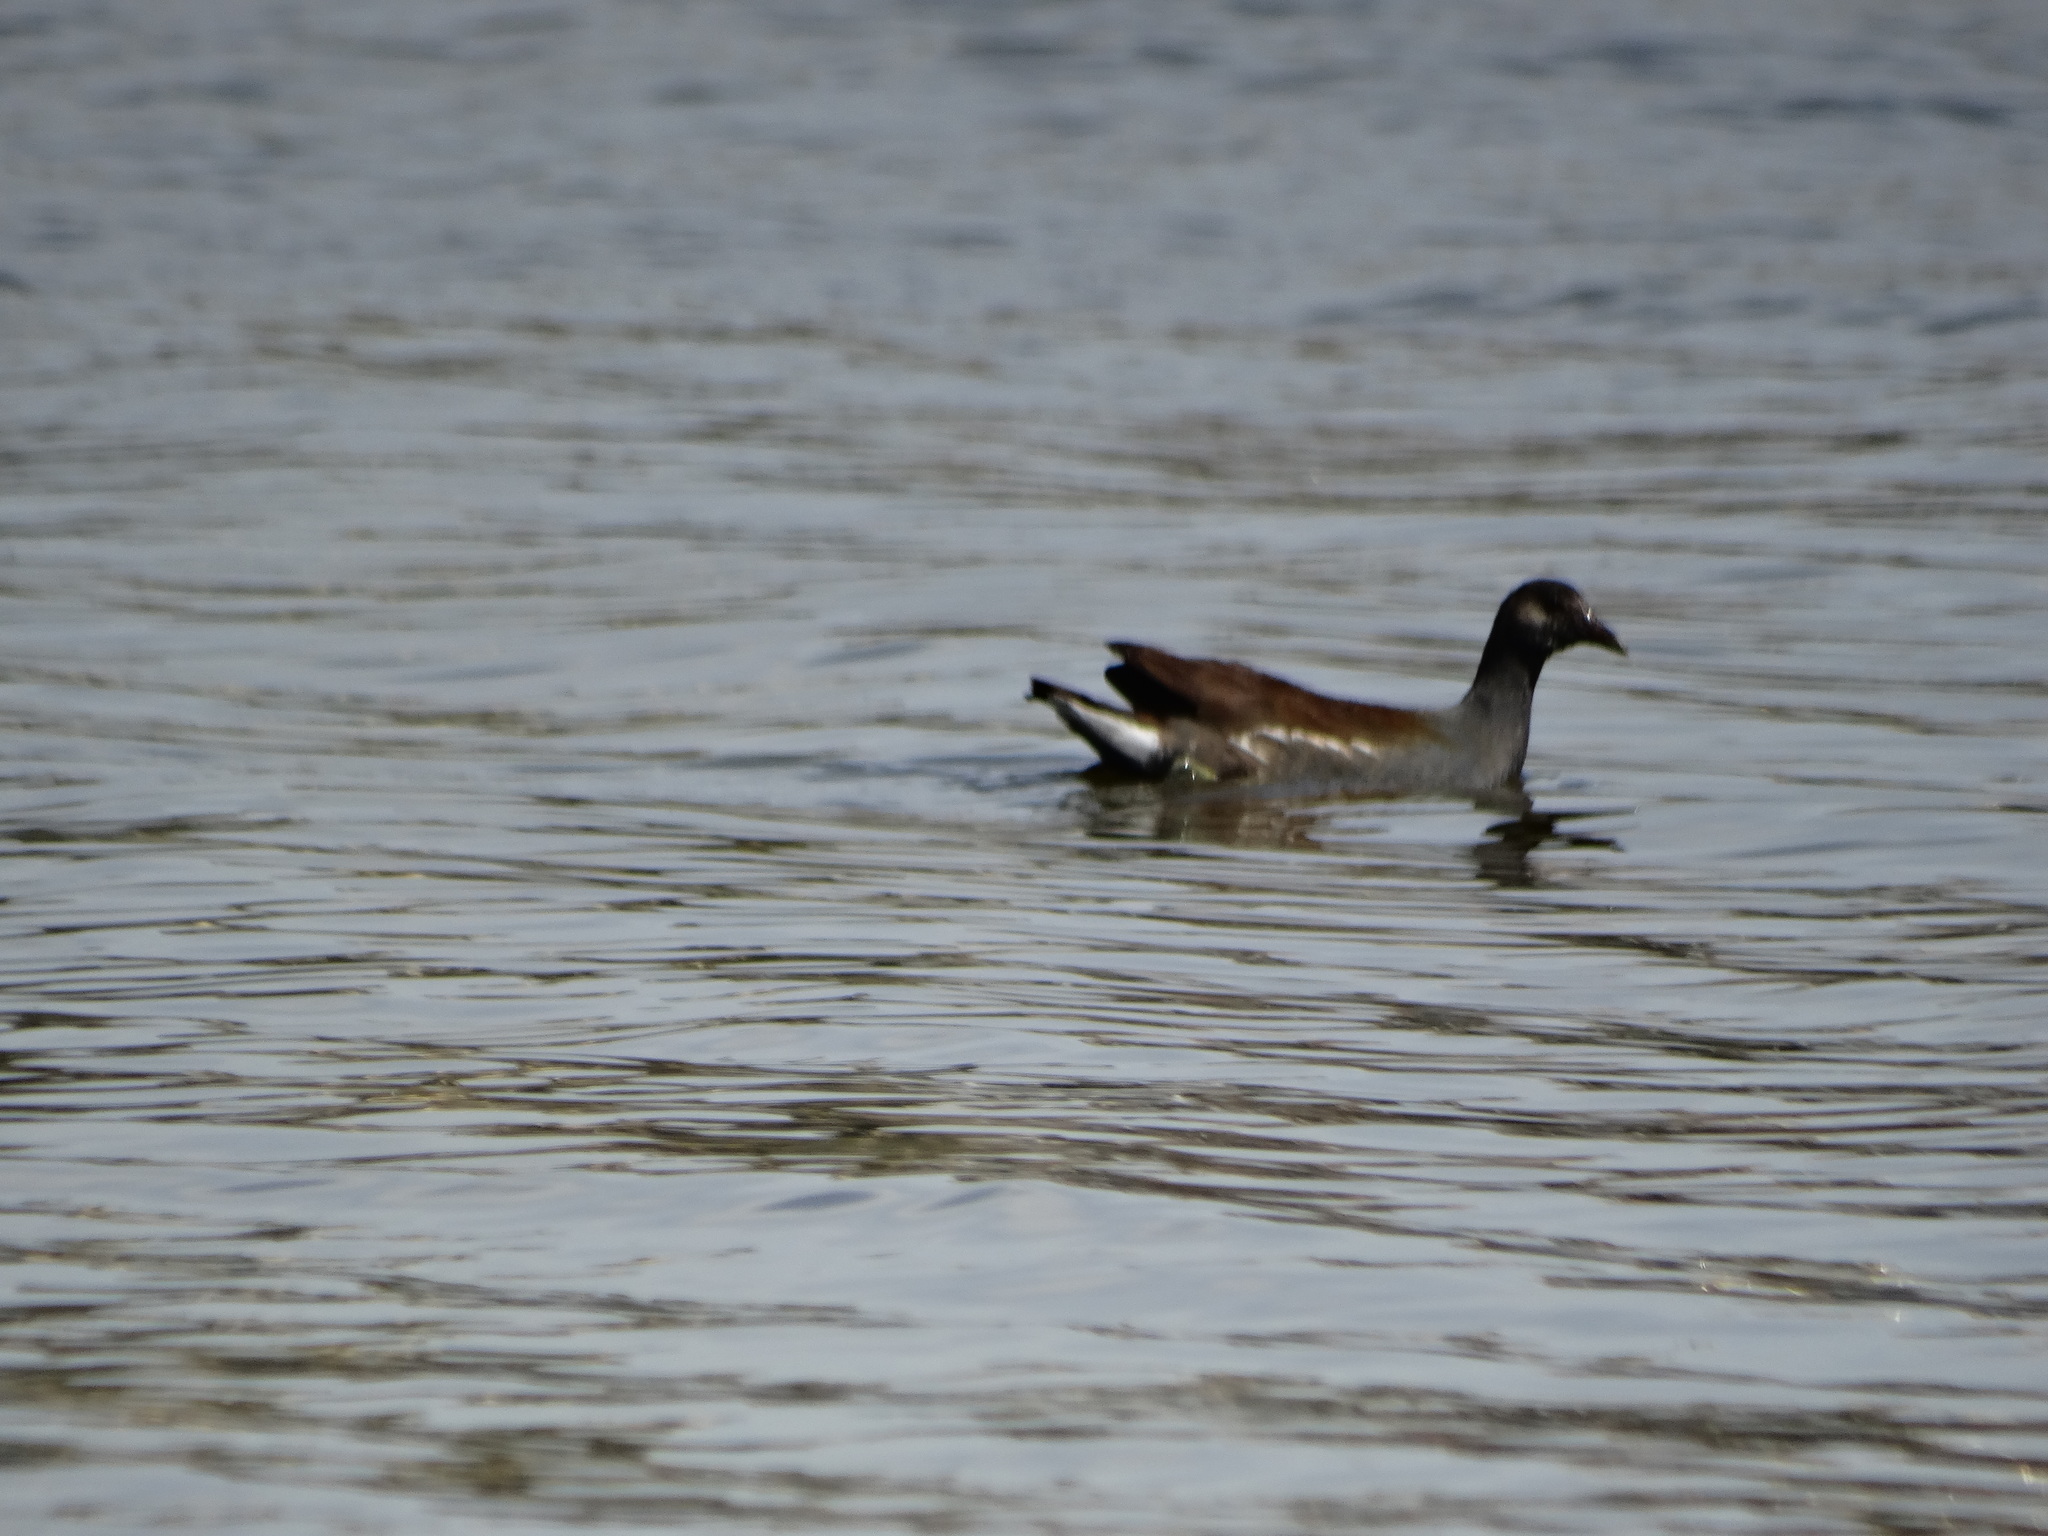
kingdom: Animalia
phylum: Chordata
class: Aves
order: Gruiformes
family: Rallidae
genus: Gallinula
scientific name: Gallinula chloropus
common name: Common moorhen
